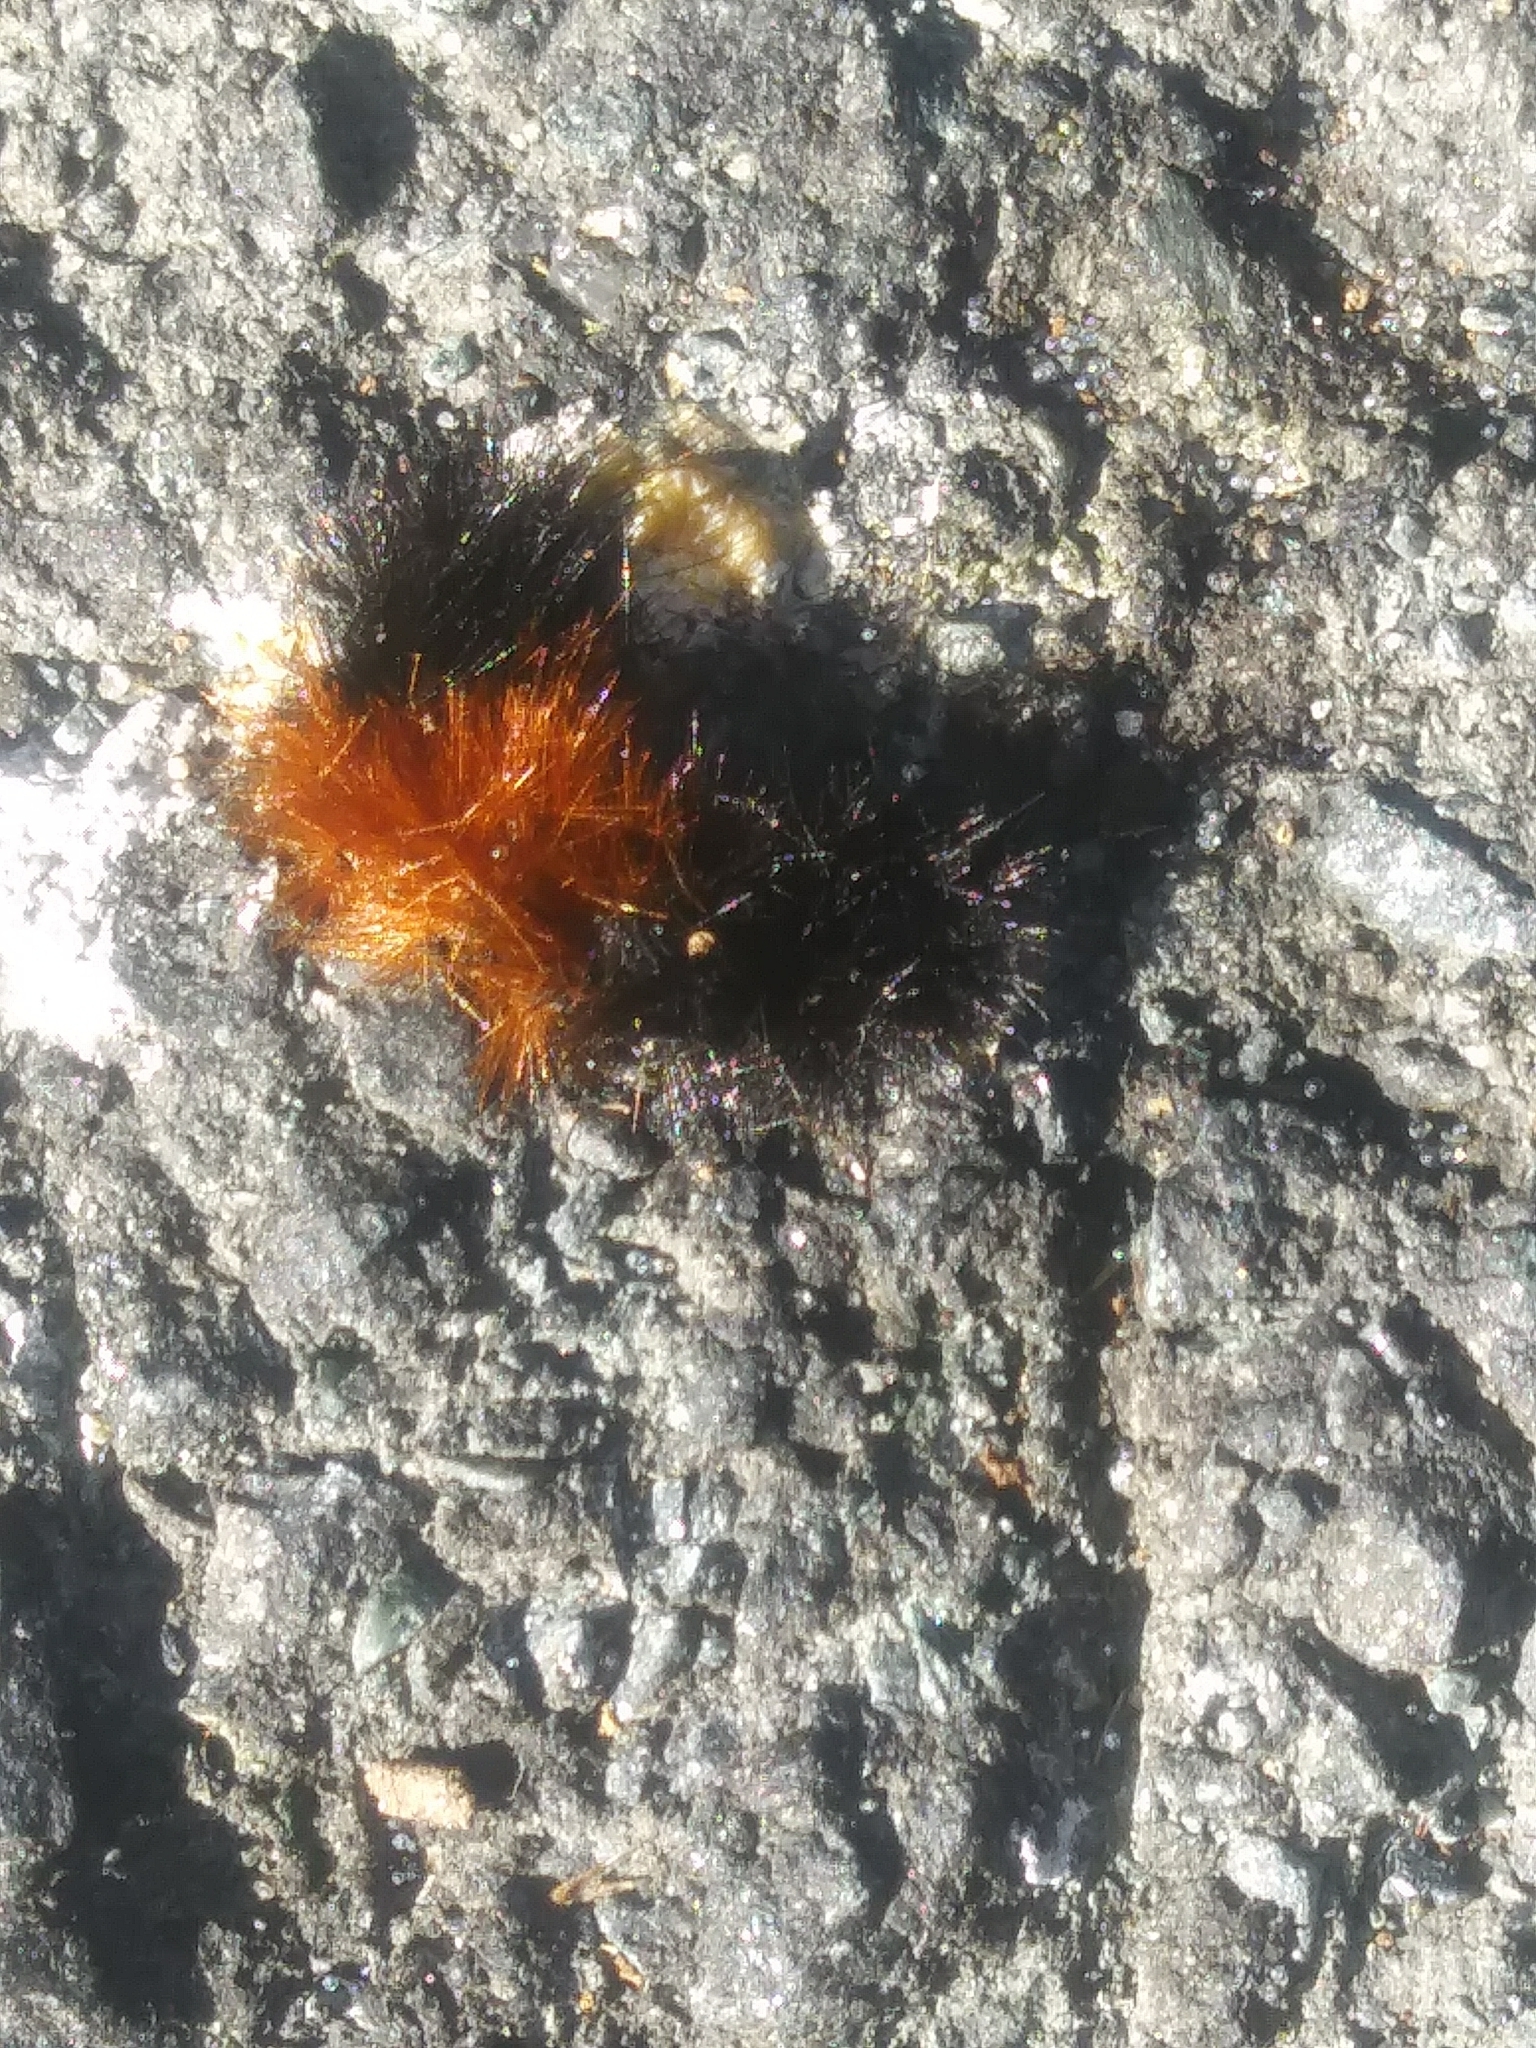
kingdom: Animalia
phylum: Arthropoda
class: Insecta
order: Lepidoptera
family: Erebidae
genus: Pyrrharctia
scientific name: Pyrrharctia isabella
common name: Isabella tiger moth
